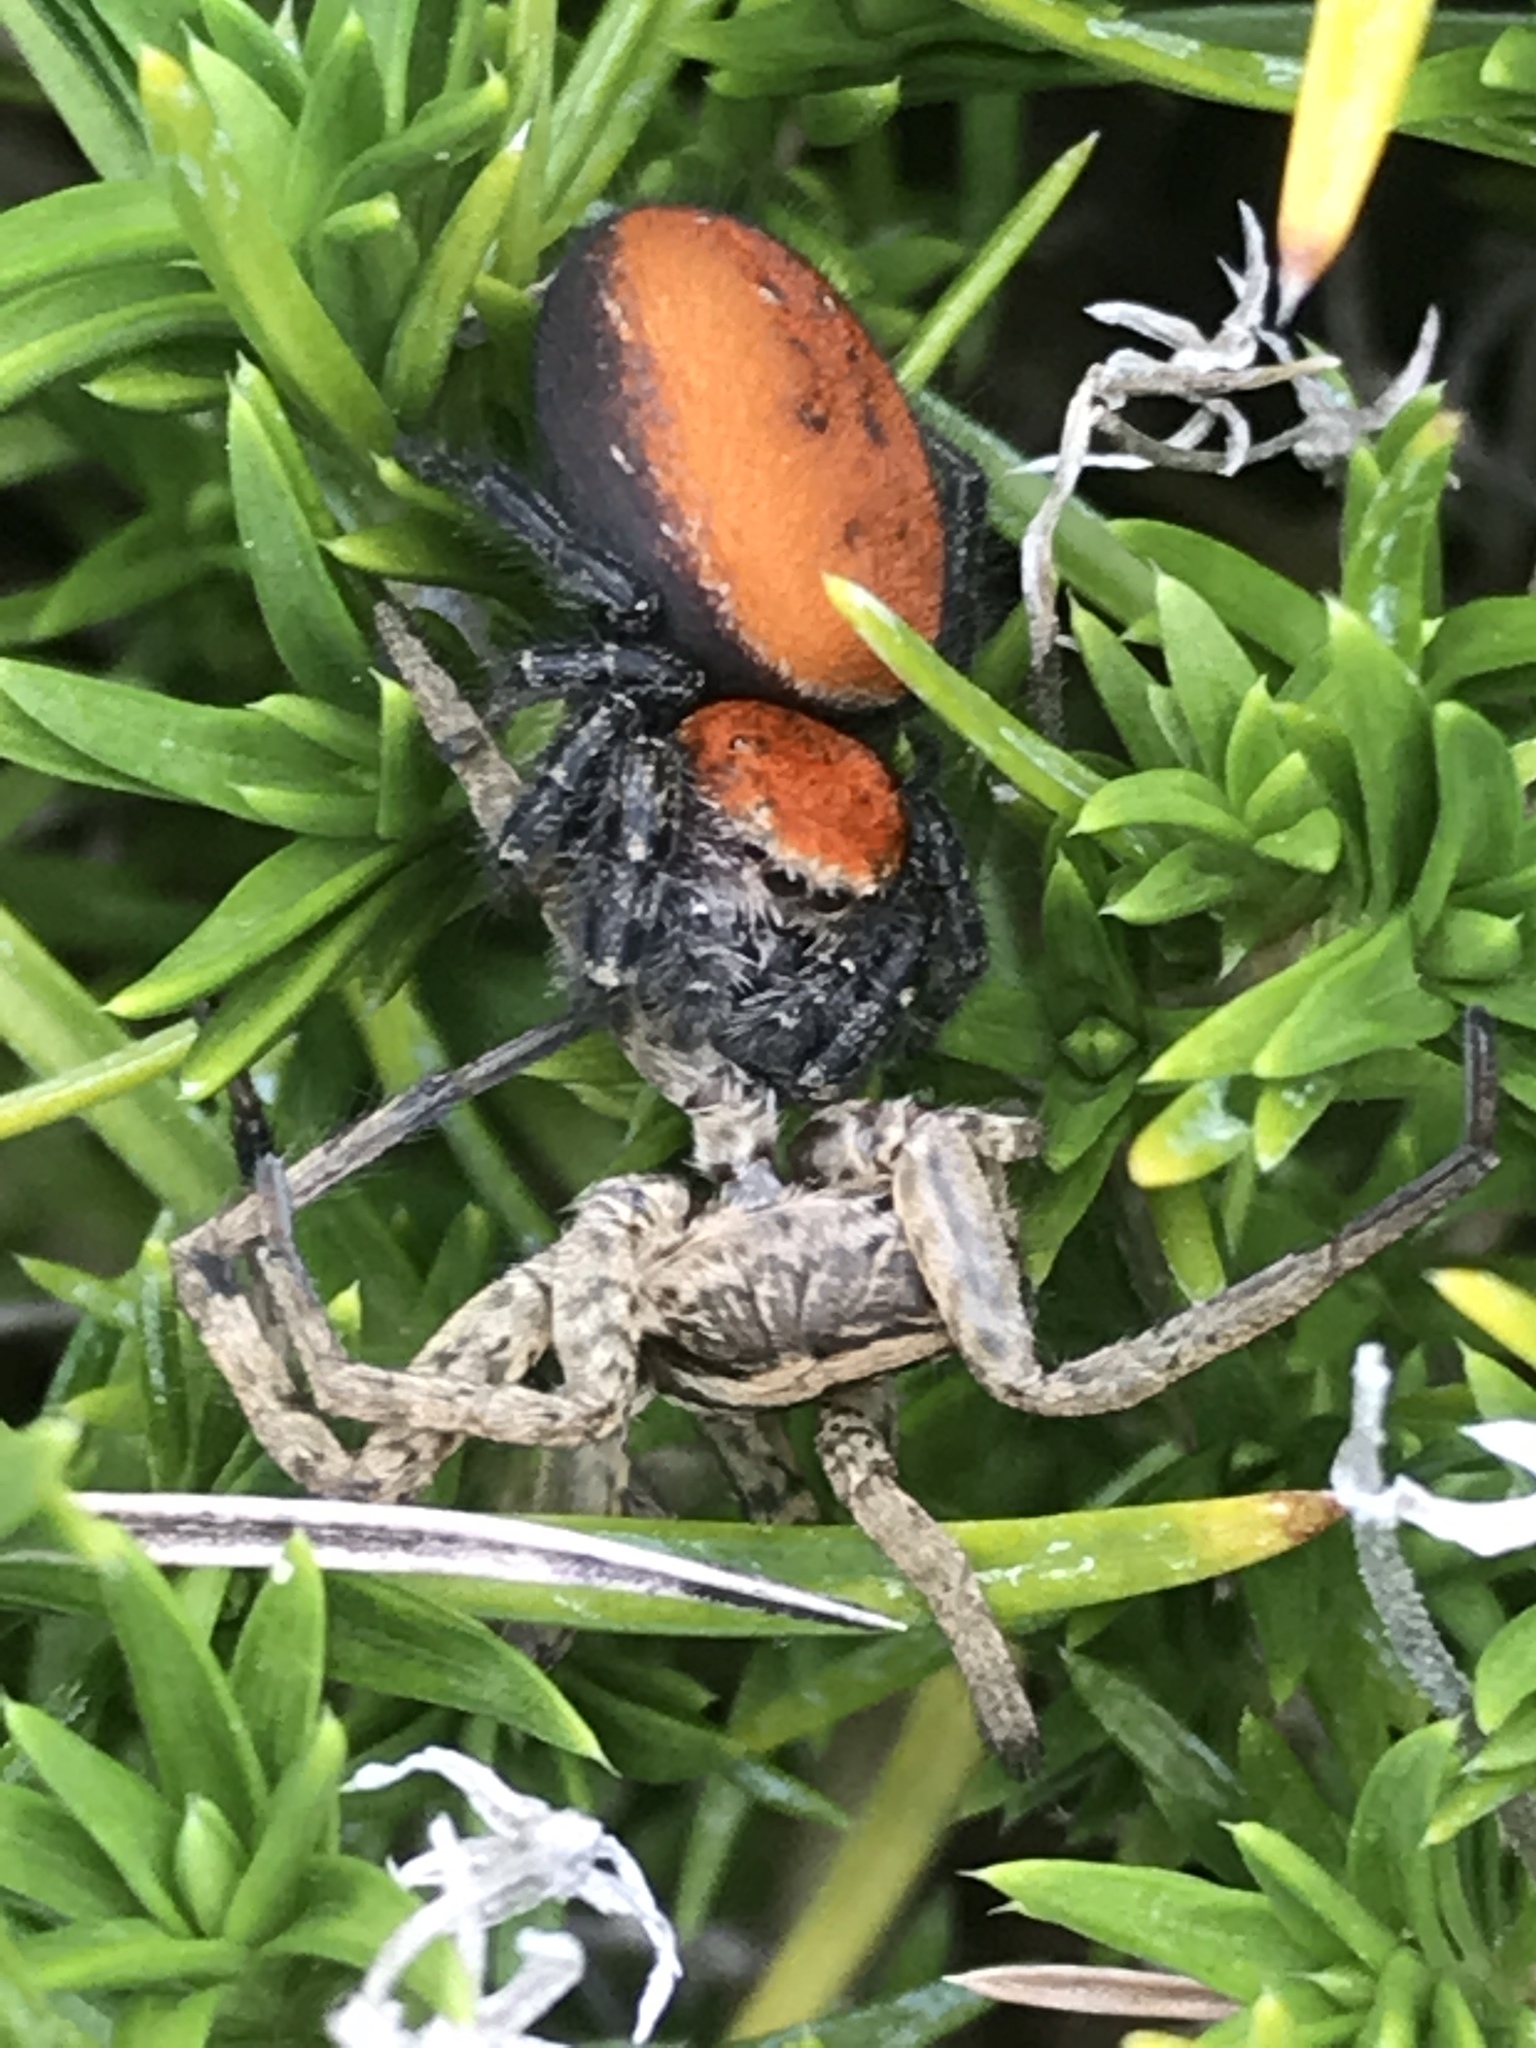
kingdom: Animalia
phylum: Arthropoda
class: Arachnida
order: Araneae
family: Salticidae
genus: Phidippus
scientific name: Phidippus cardinalis
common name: Cardinal jumper
